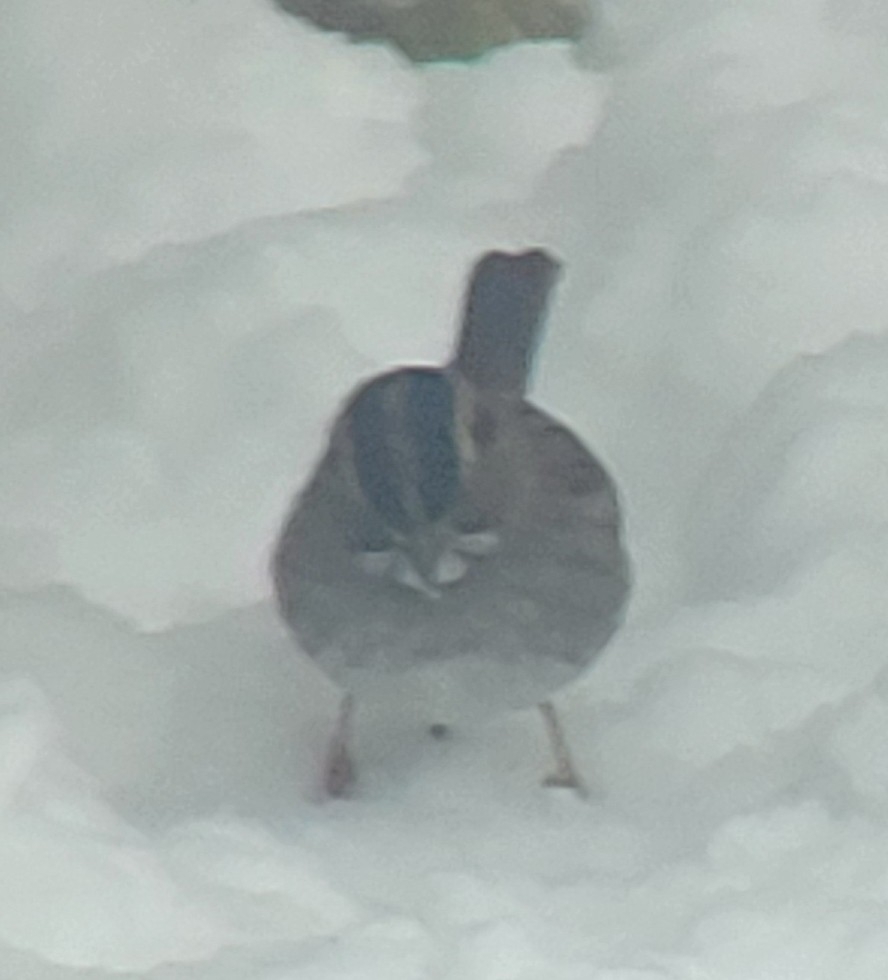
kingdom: Animalia
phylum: Chordata
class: Aves
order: Passeriformes
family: Passerellidae
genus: Zonotrichia
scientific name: Zonotrichia albicollis
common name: White-throated sparrow
